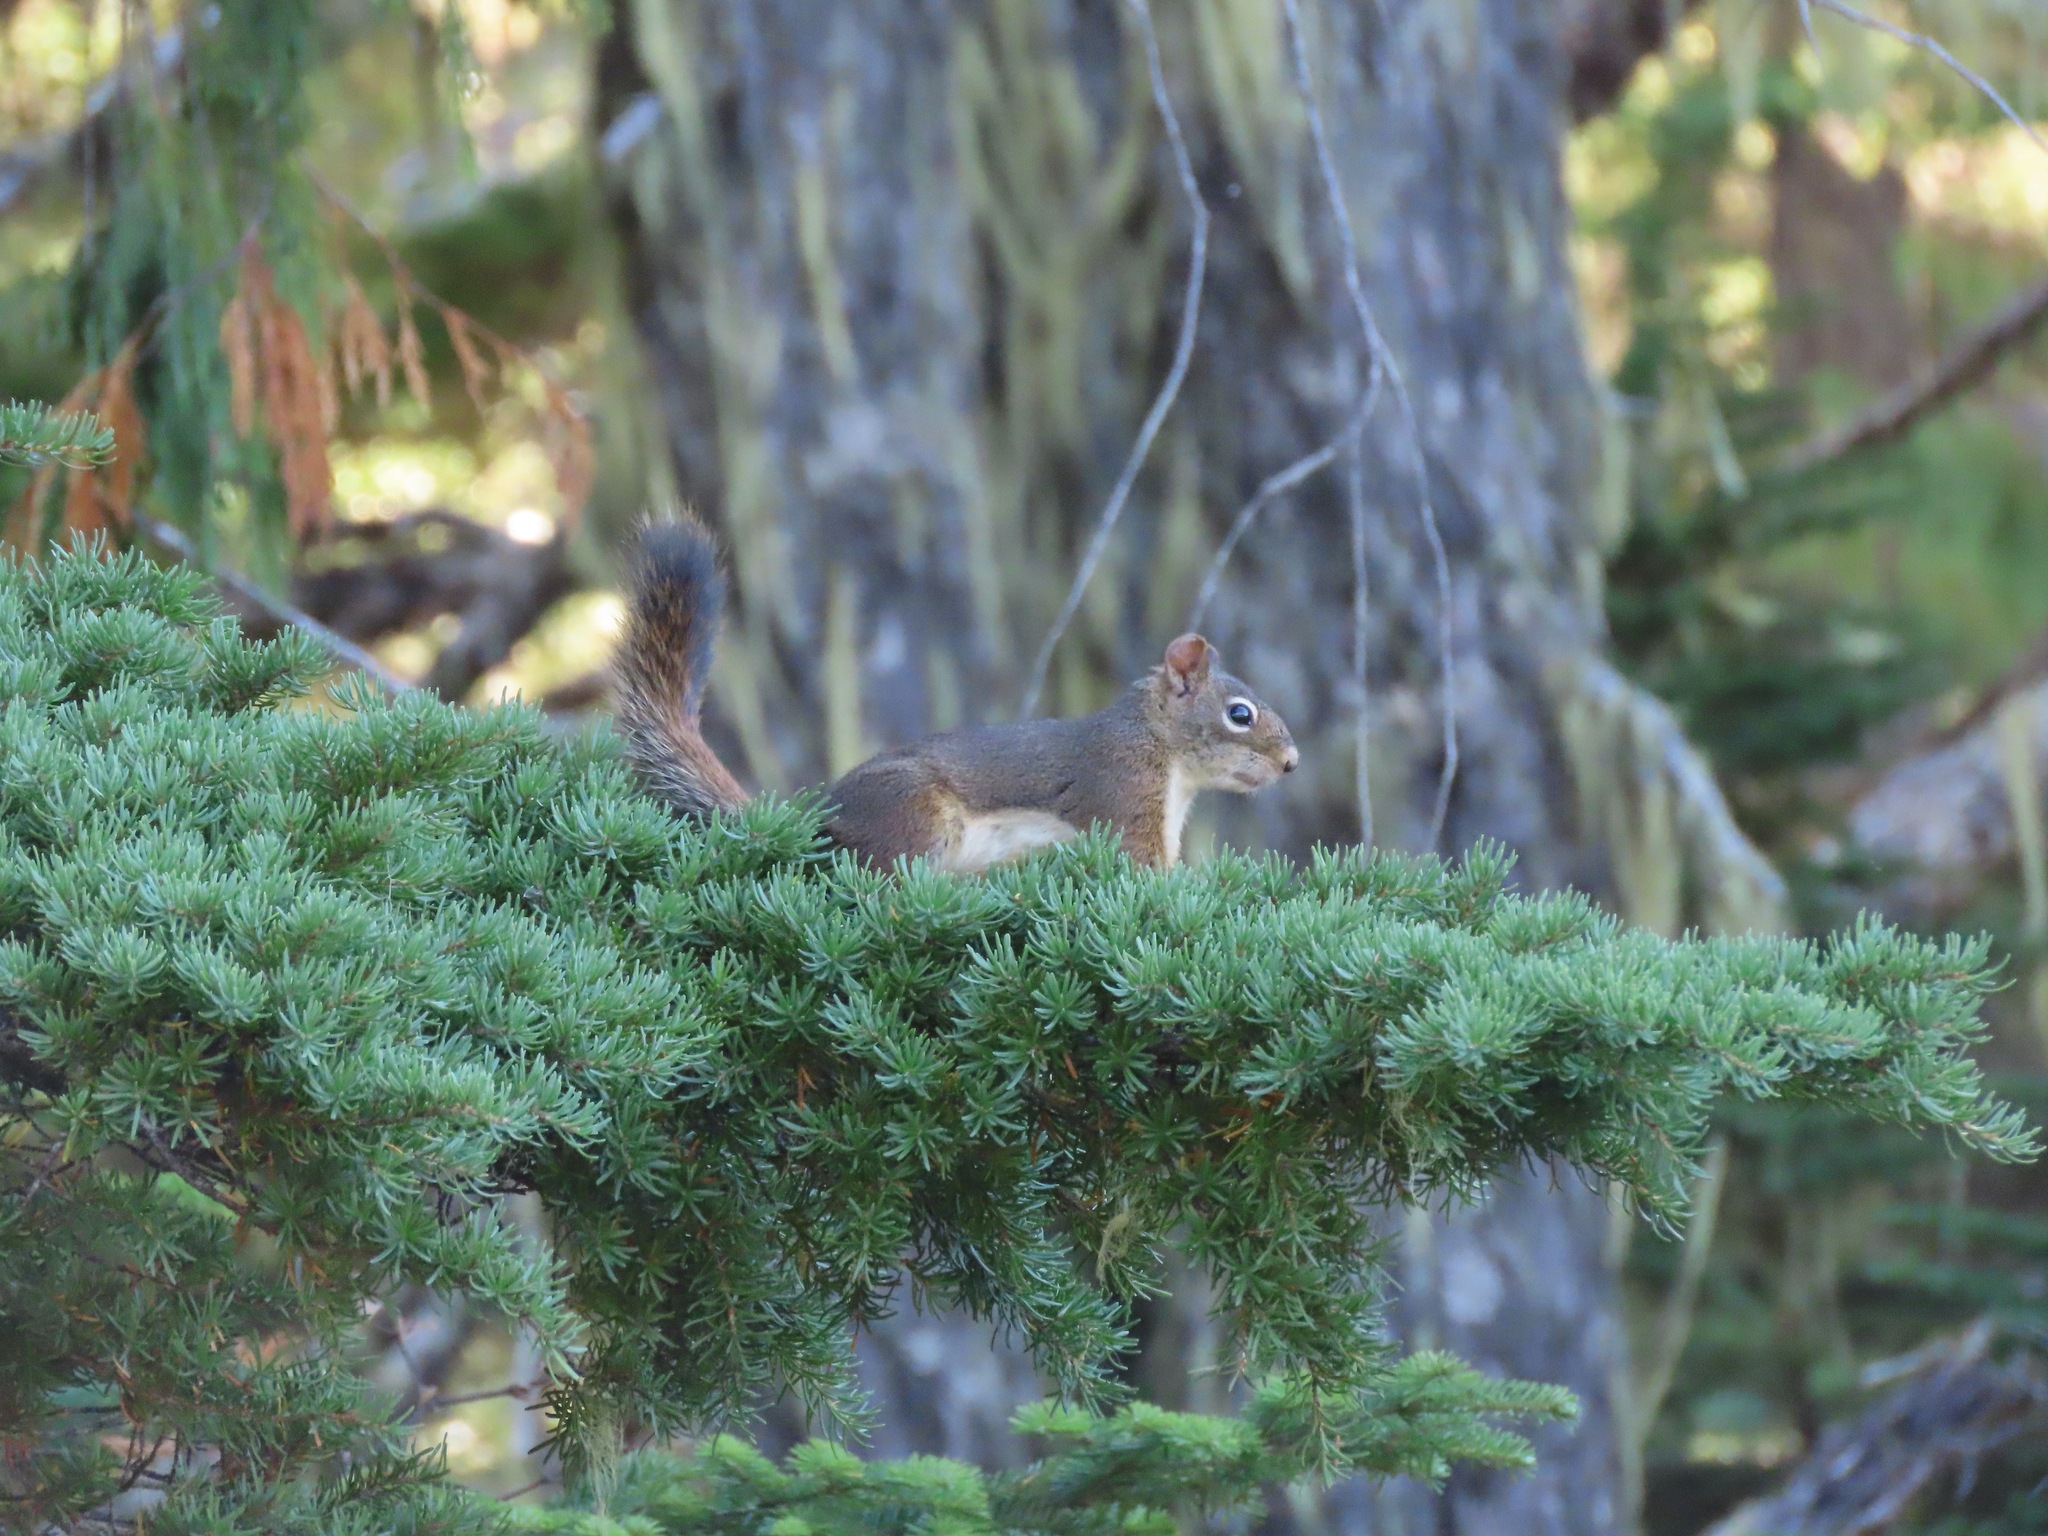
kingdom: Animalia
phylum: Chordata
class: Mammalia
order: Rodentia
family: Sciuridae
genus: Tamiasciurus
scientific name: Tamiasciurus hudsonicus
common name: Red squirrel
